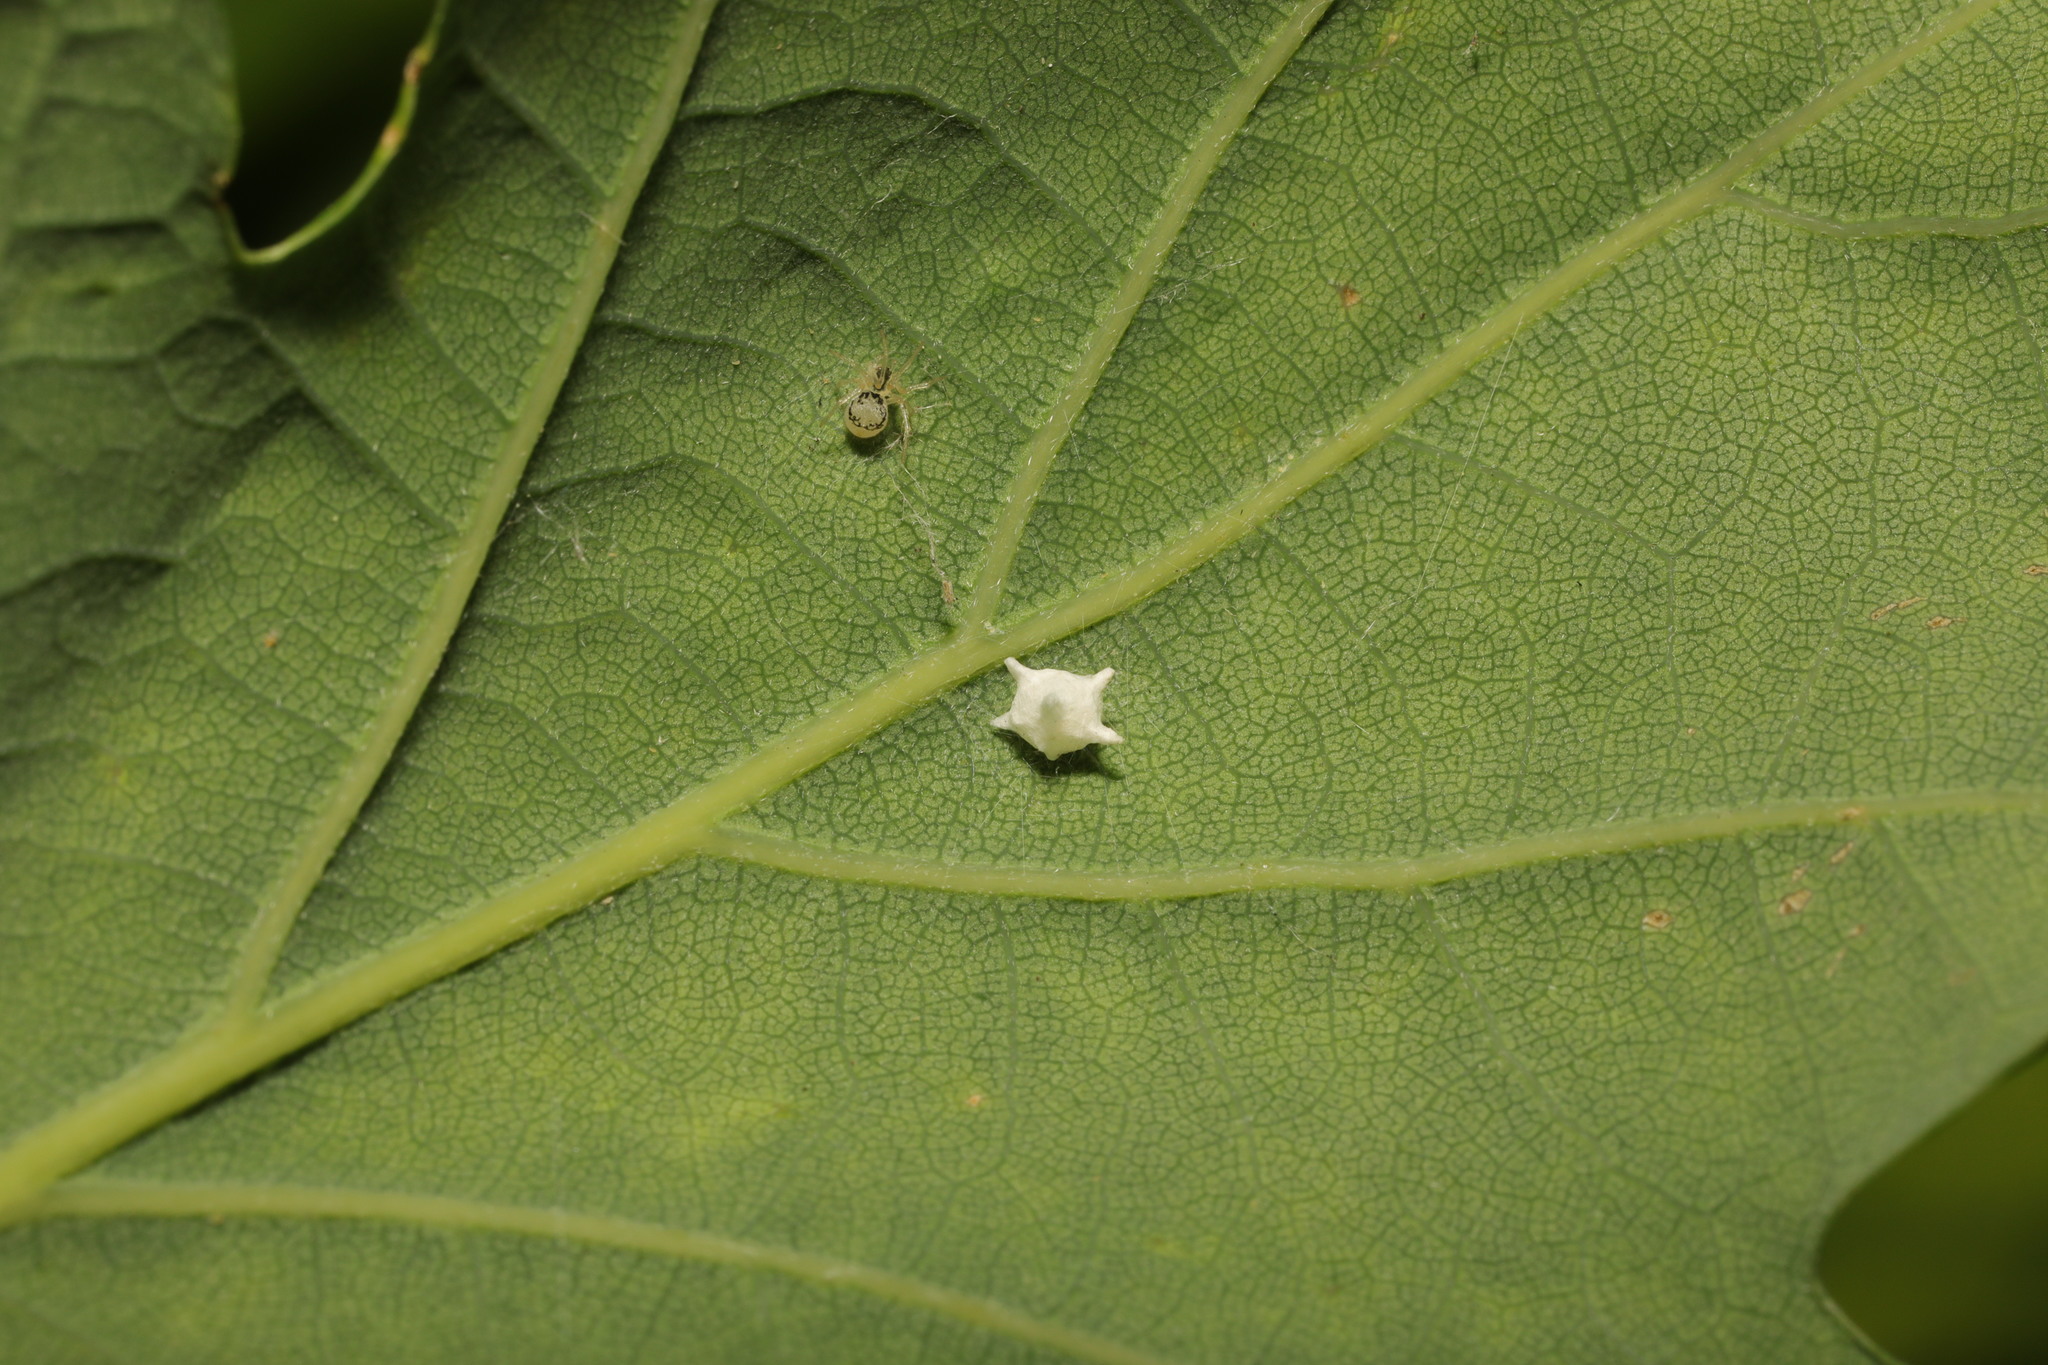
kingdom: Animalia
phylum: Arthropoda
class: Arachnida
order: Araneae
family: Theridiidae
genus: Paidiscura
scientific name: Paidiscura pallens
